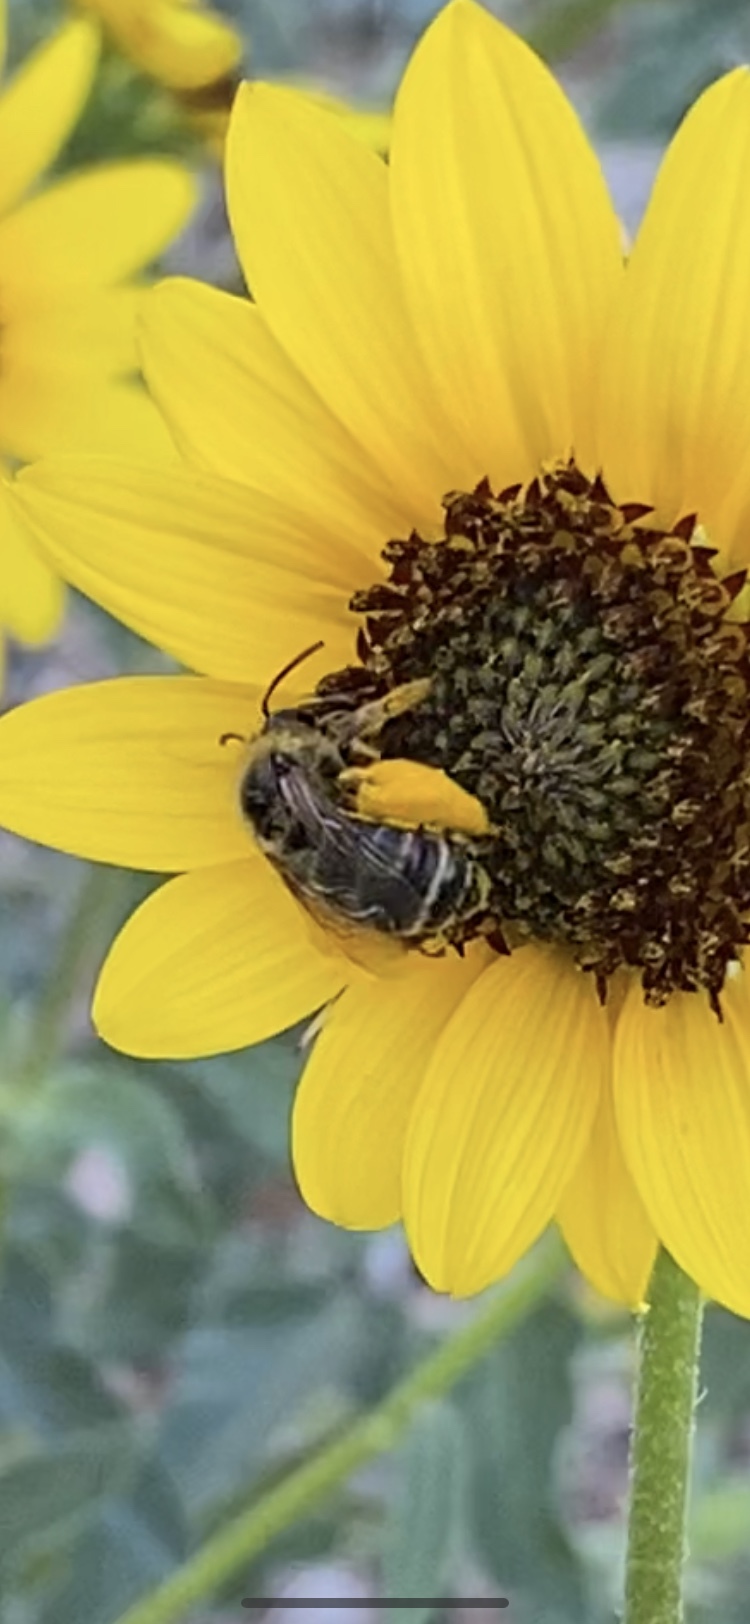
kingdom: Animalia
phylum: Arthropoda
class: Insecta
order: Hymenoptera
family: Apidae
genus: Melissodes
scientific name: Melissodes
